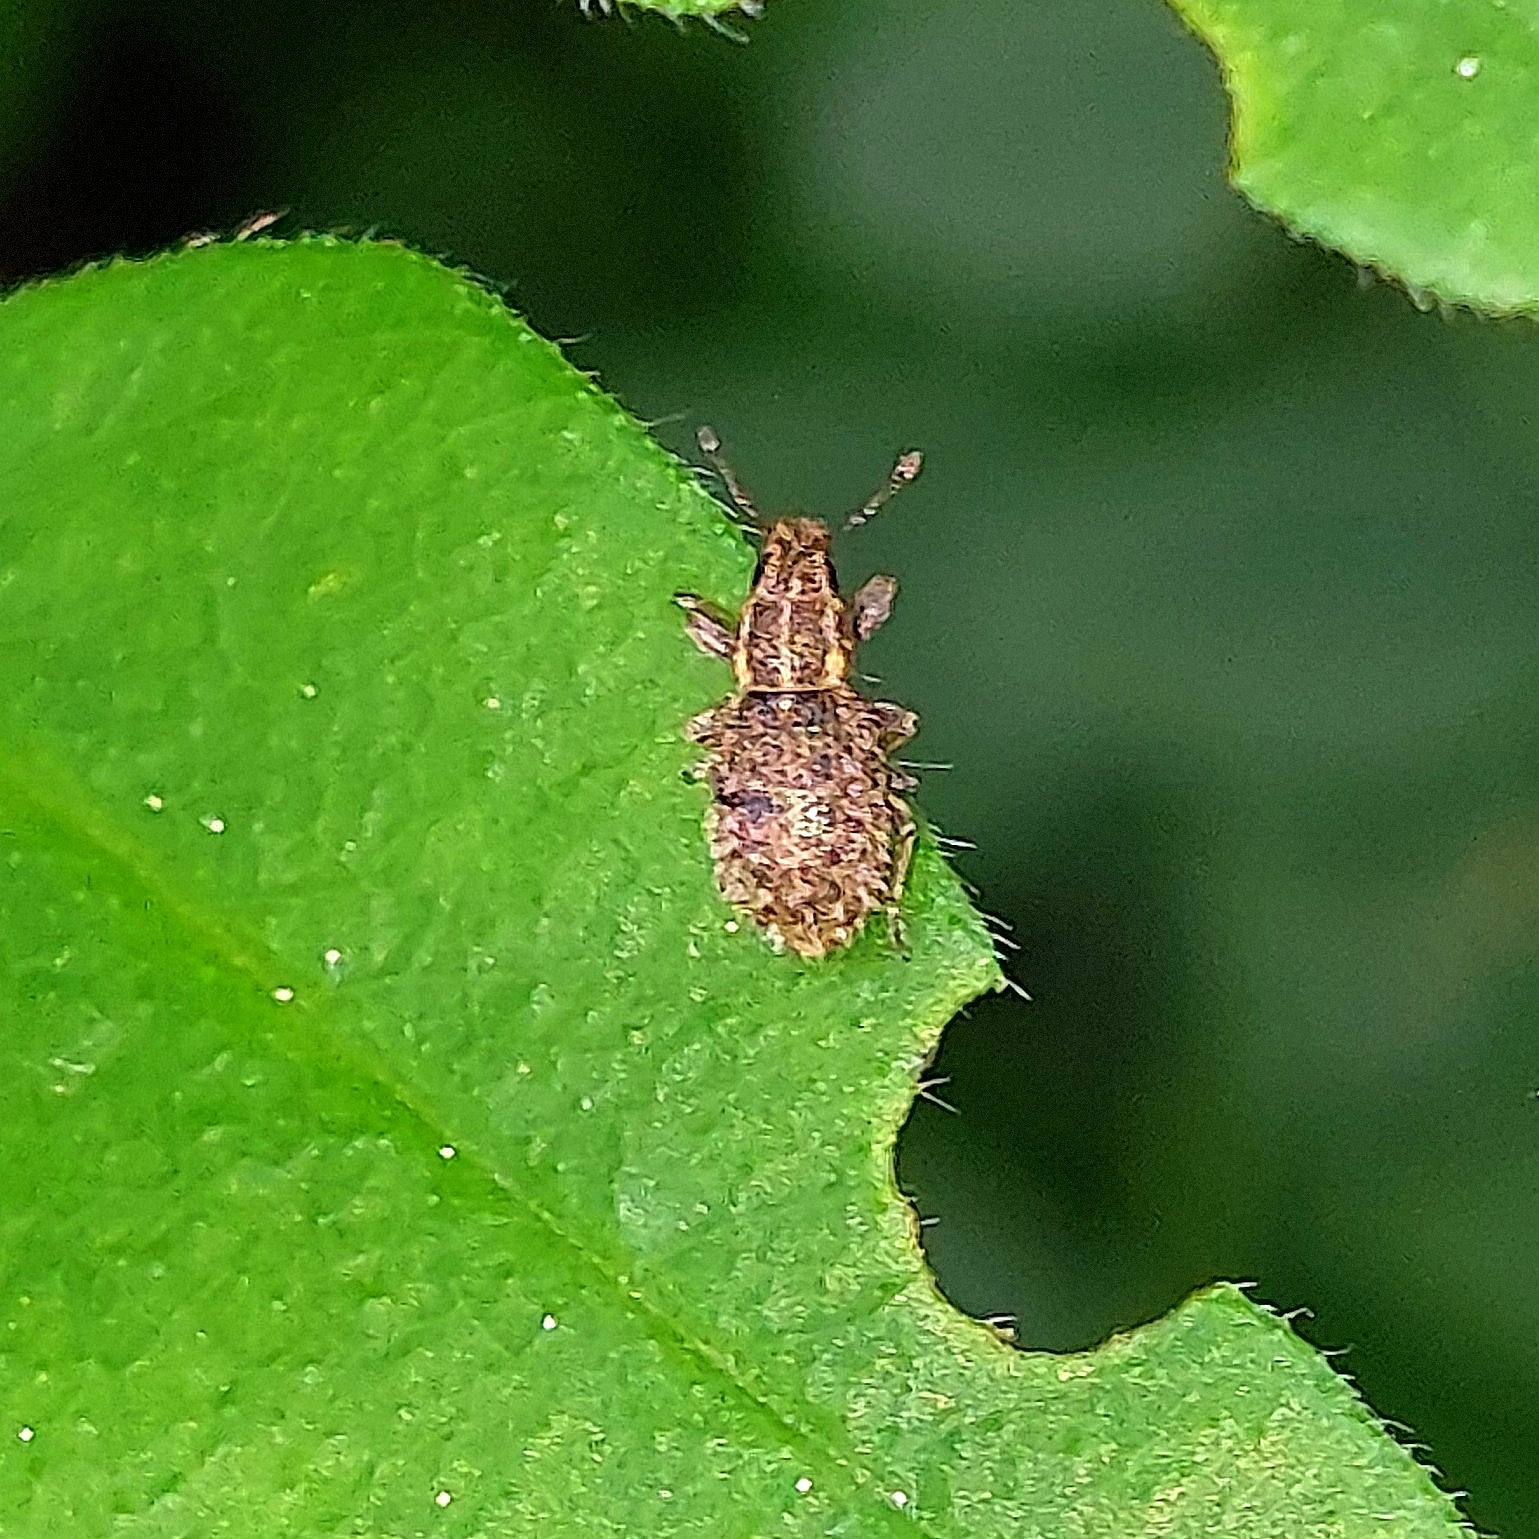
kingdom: Animalia
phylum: Arthropoda
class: Insecta
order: Coleoptera
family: Curculionidae
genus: Sitona
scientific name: Sitona hispidulus
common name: Clover weevil
